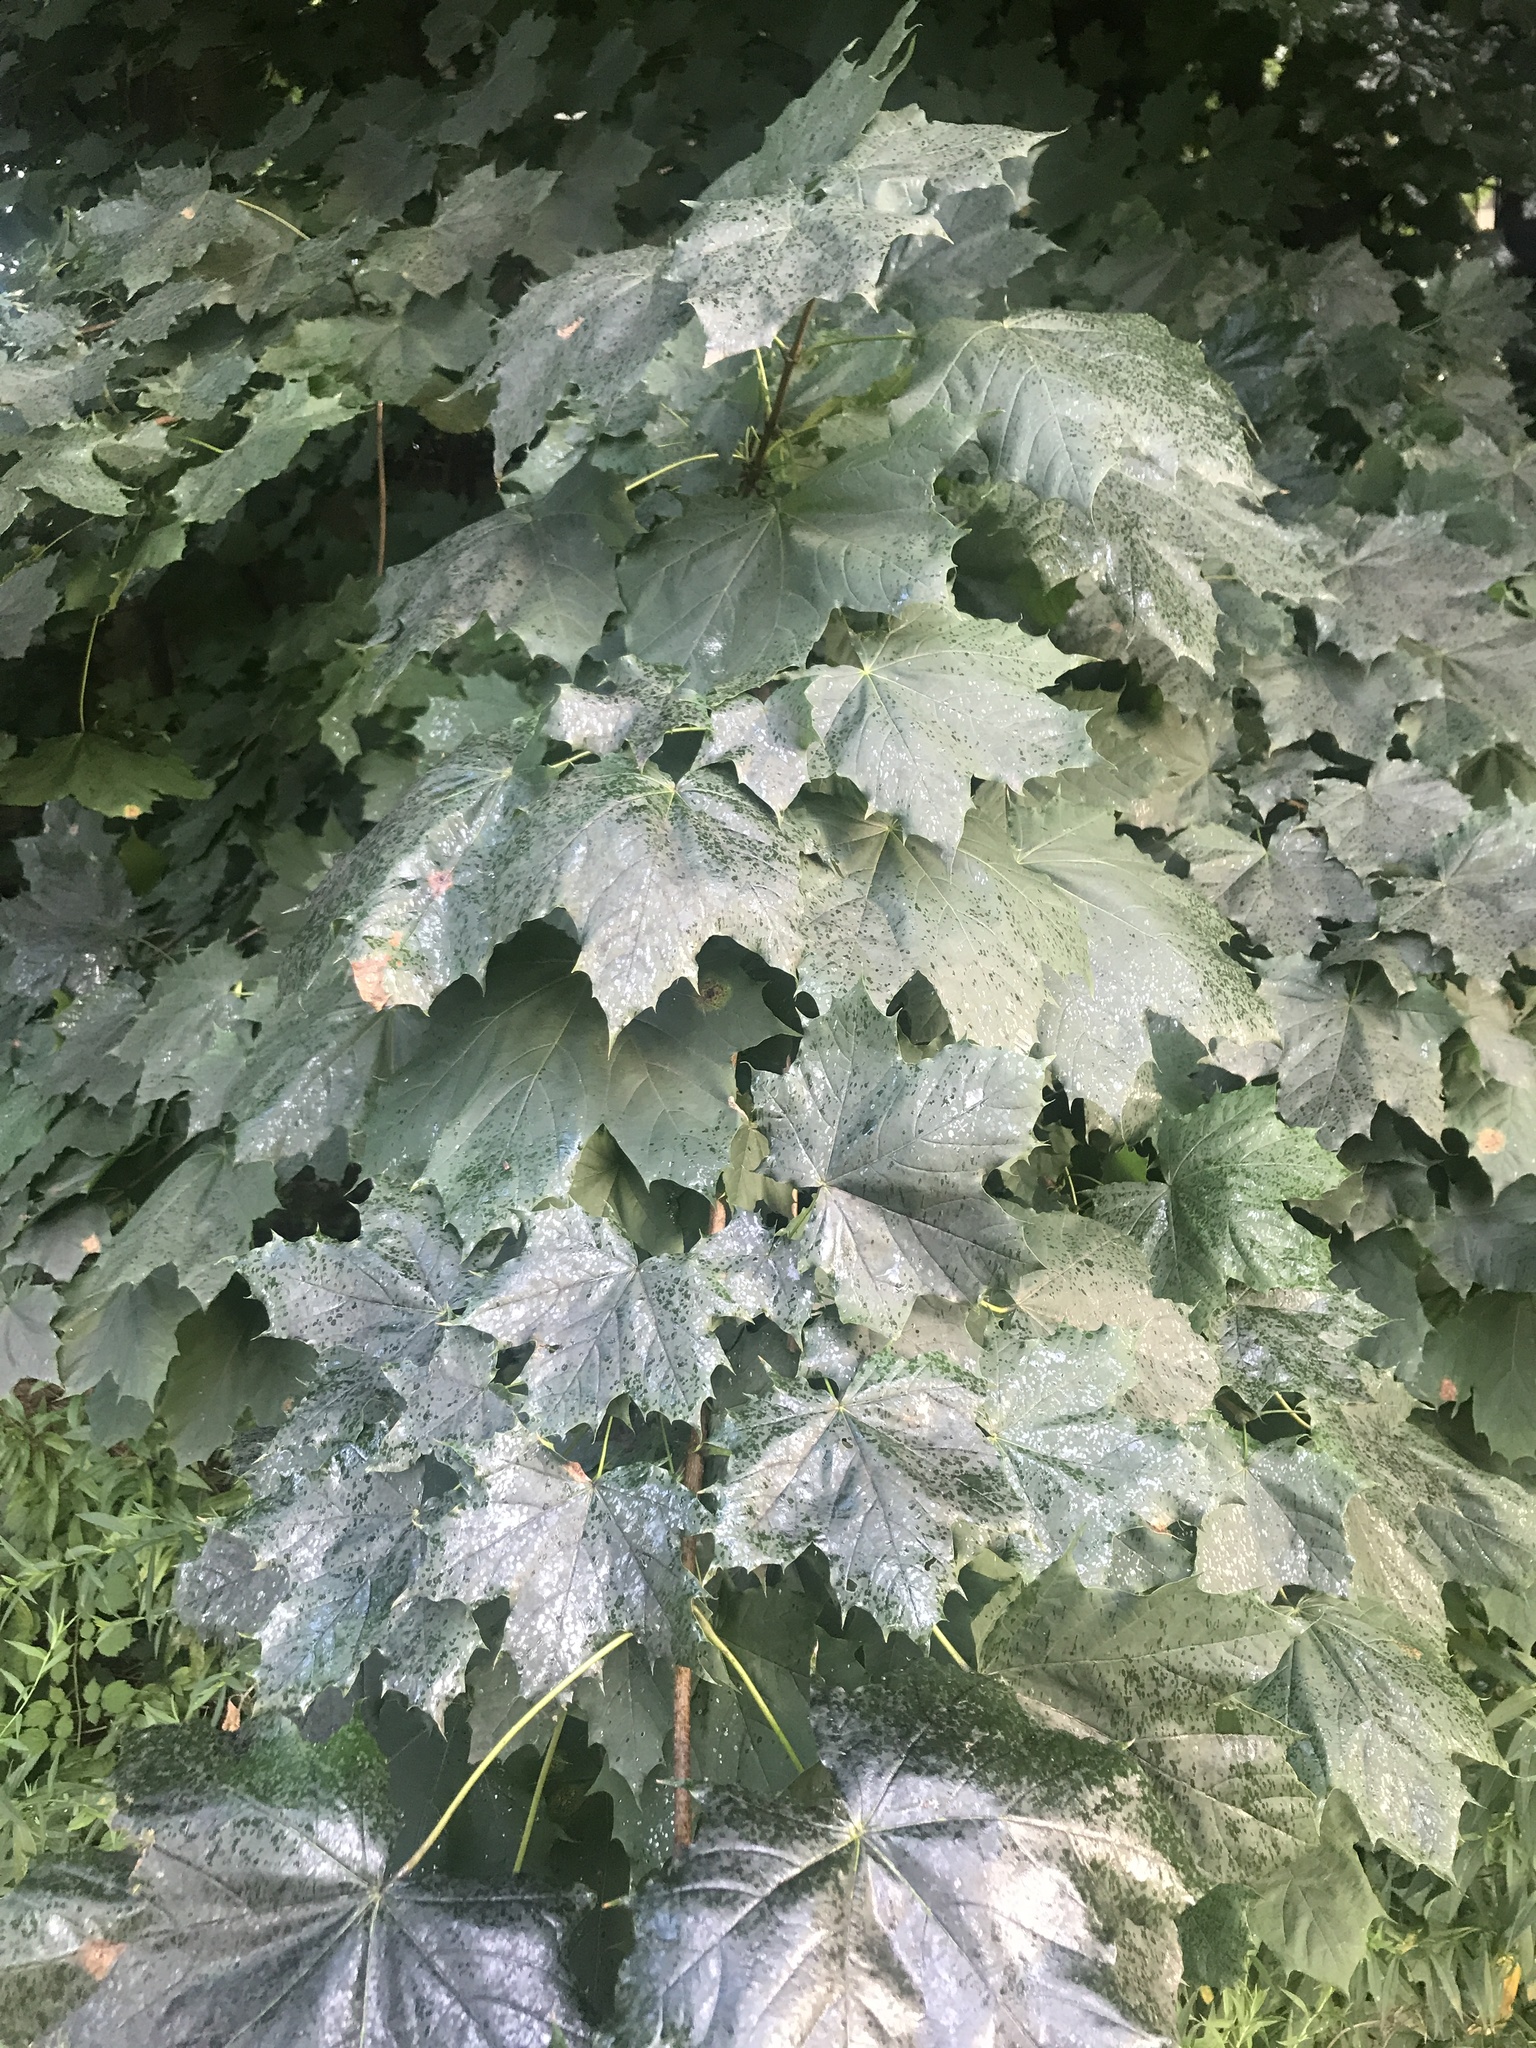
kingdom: Plantae
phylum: Tracheophyta
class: Magnoliopsida
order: Sapindales
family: Sapindaceae
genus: Acer
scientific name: Acer platanoides
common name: Norway maple
